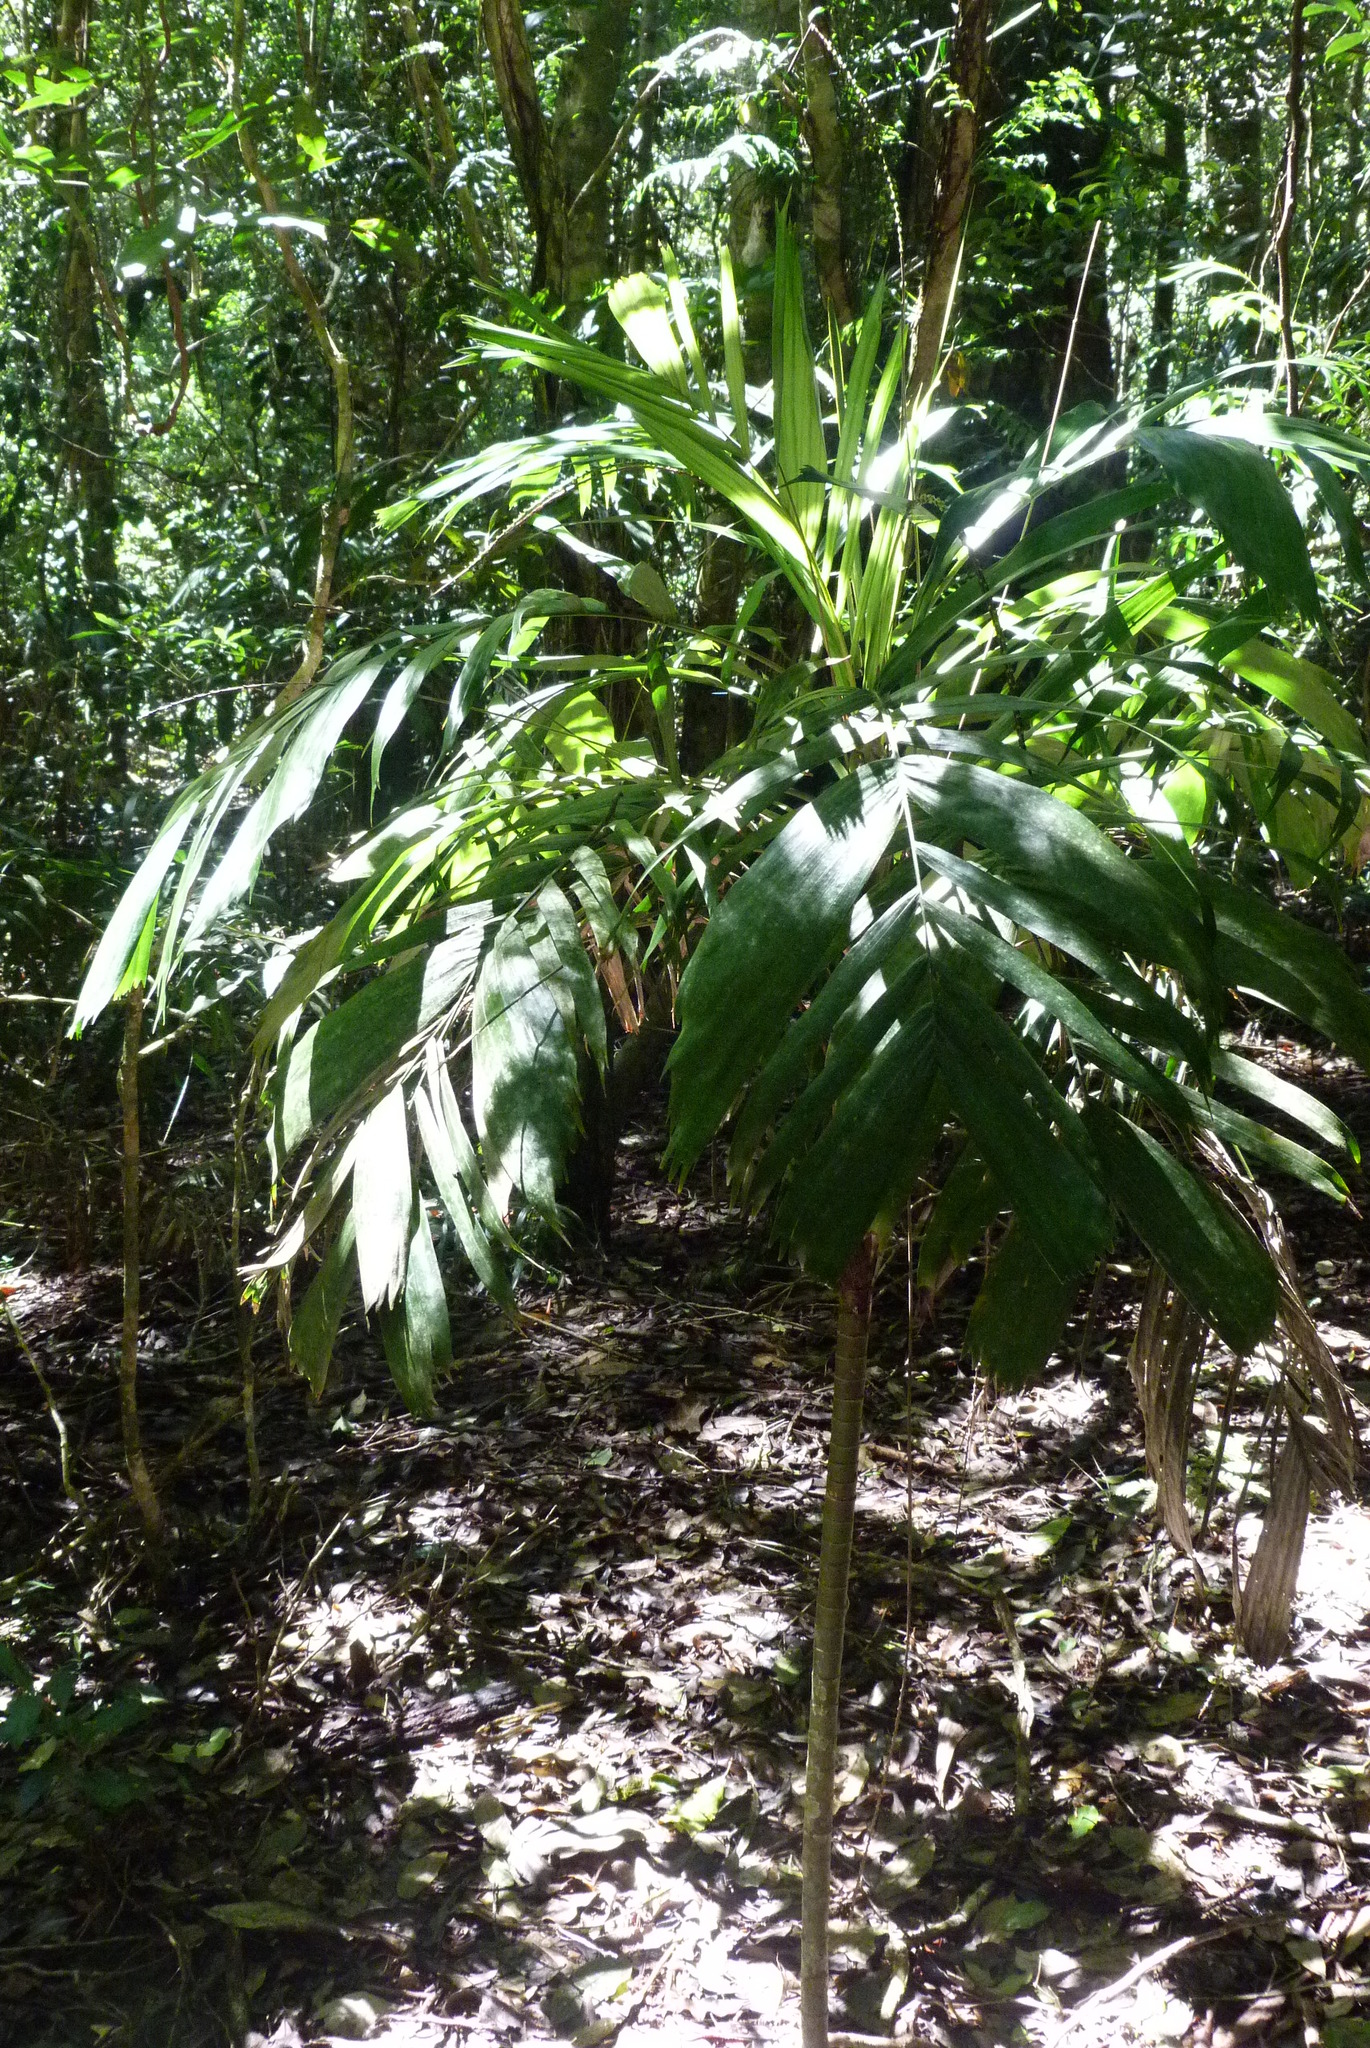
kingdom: Plantae
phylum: Tracheophyta
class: Liliopsida
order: Arecales
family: Arecaceae
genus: Linospadix
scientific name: Linospadix monostachyus
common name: Walking-stick palm
